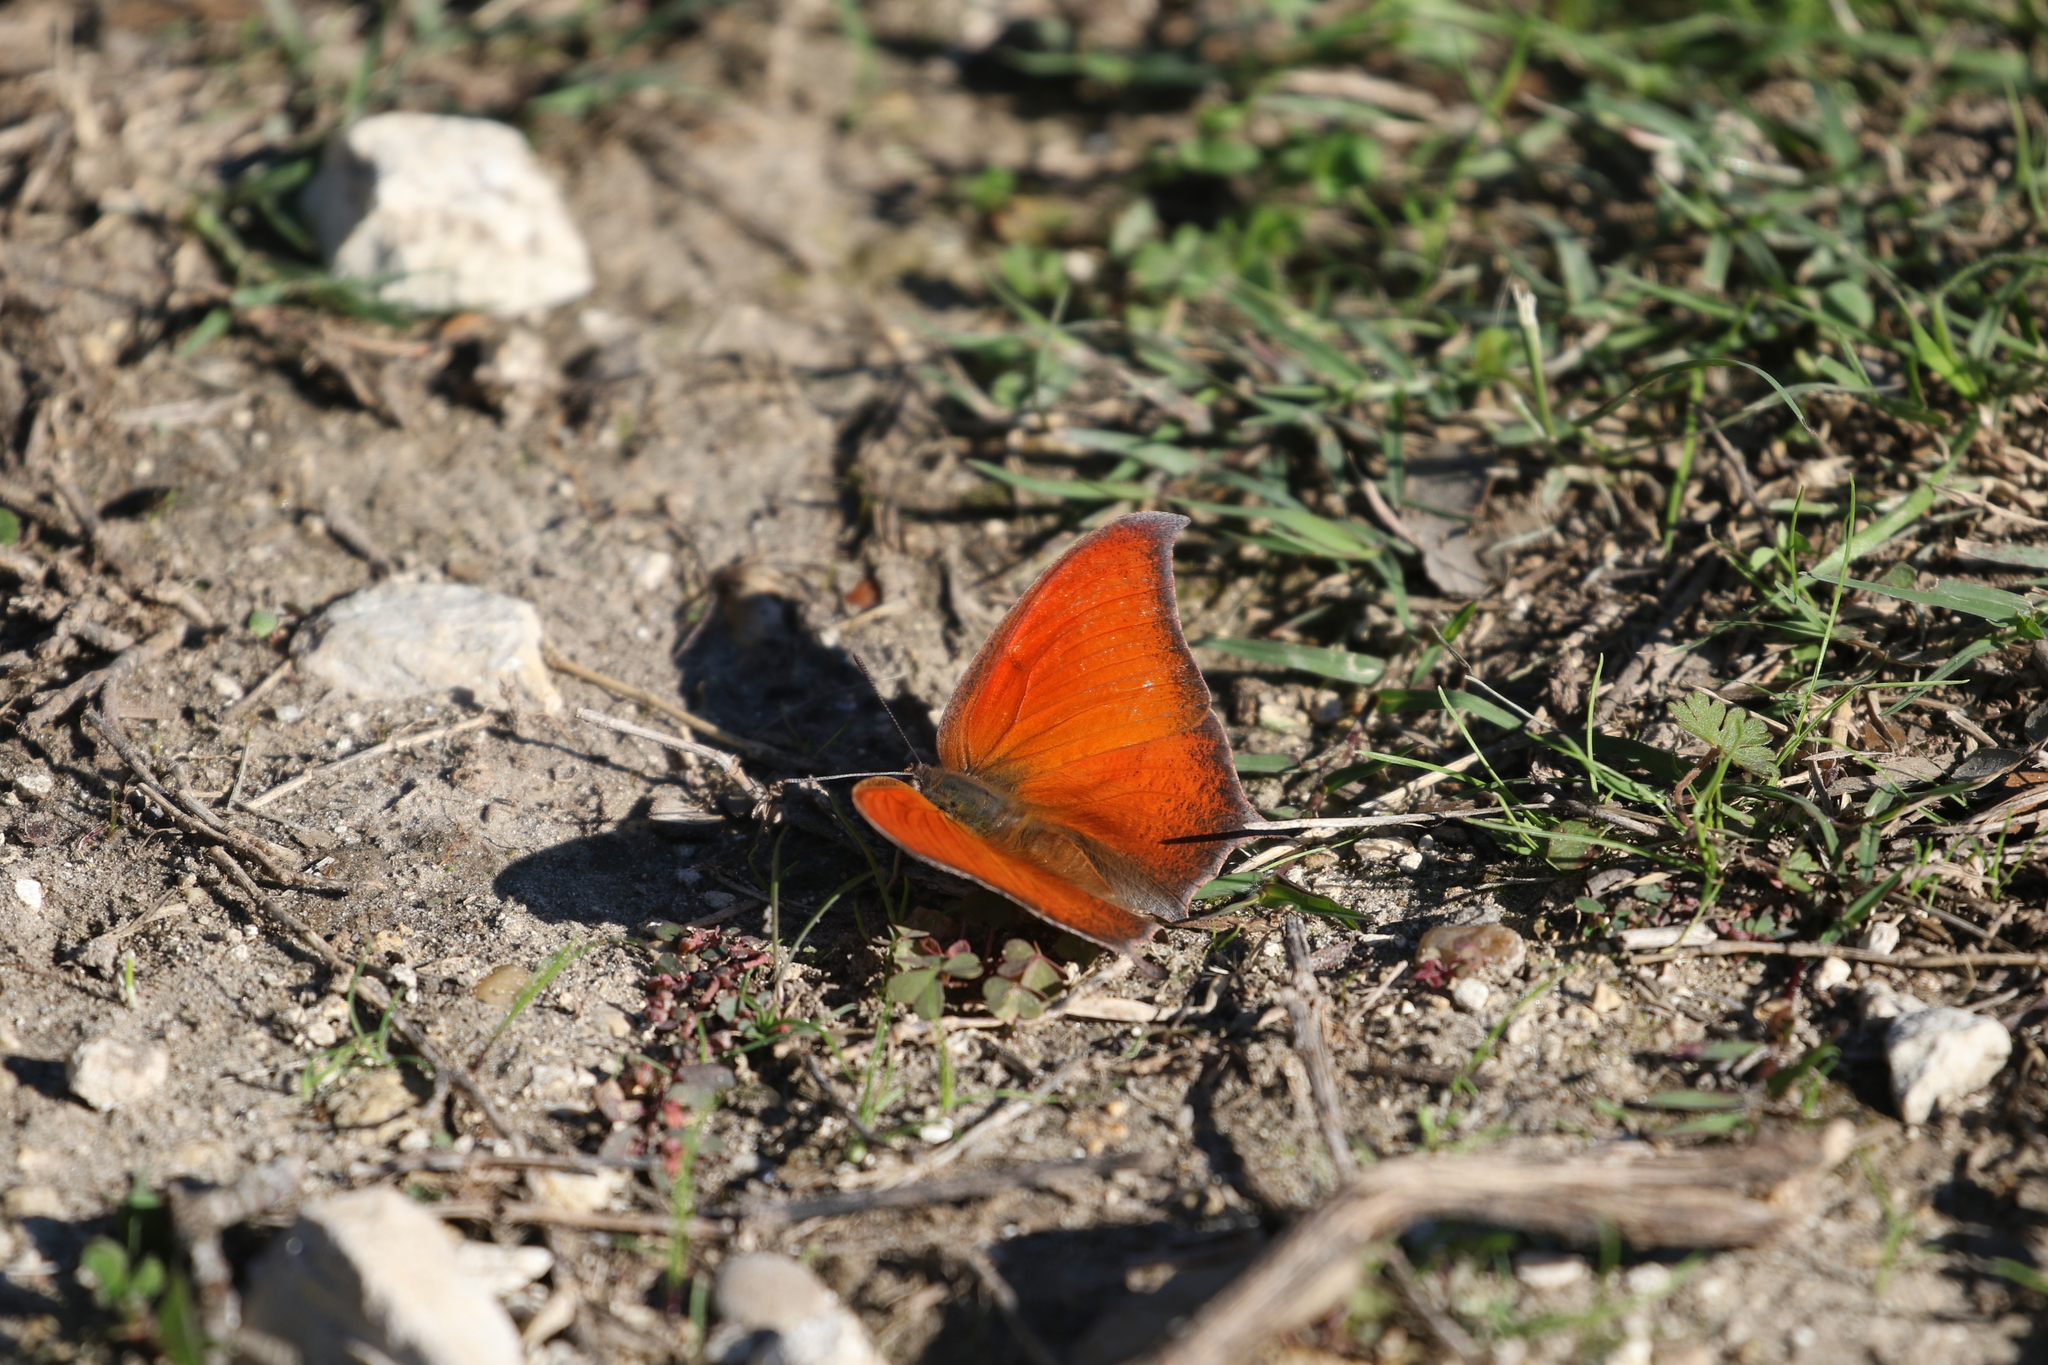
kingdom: Animalia
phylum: Arthropoda
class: Insecta
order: Lepidoptera
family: Nymphalidae
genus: Anaea
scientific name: Anaea andria
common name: Goatweed leafwing
